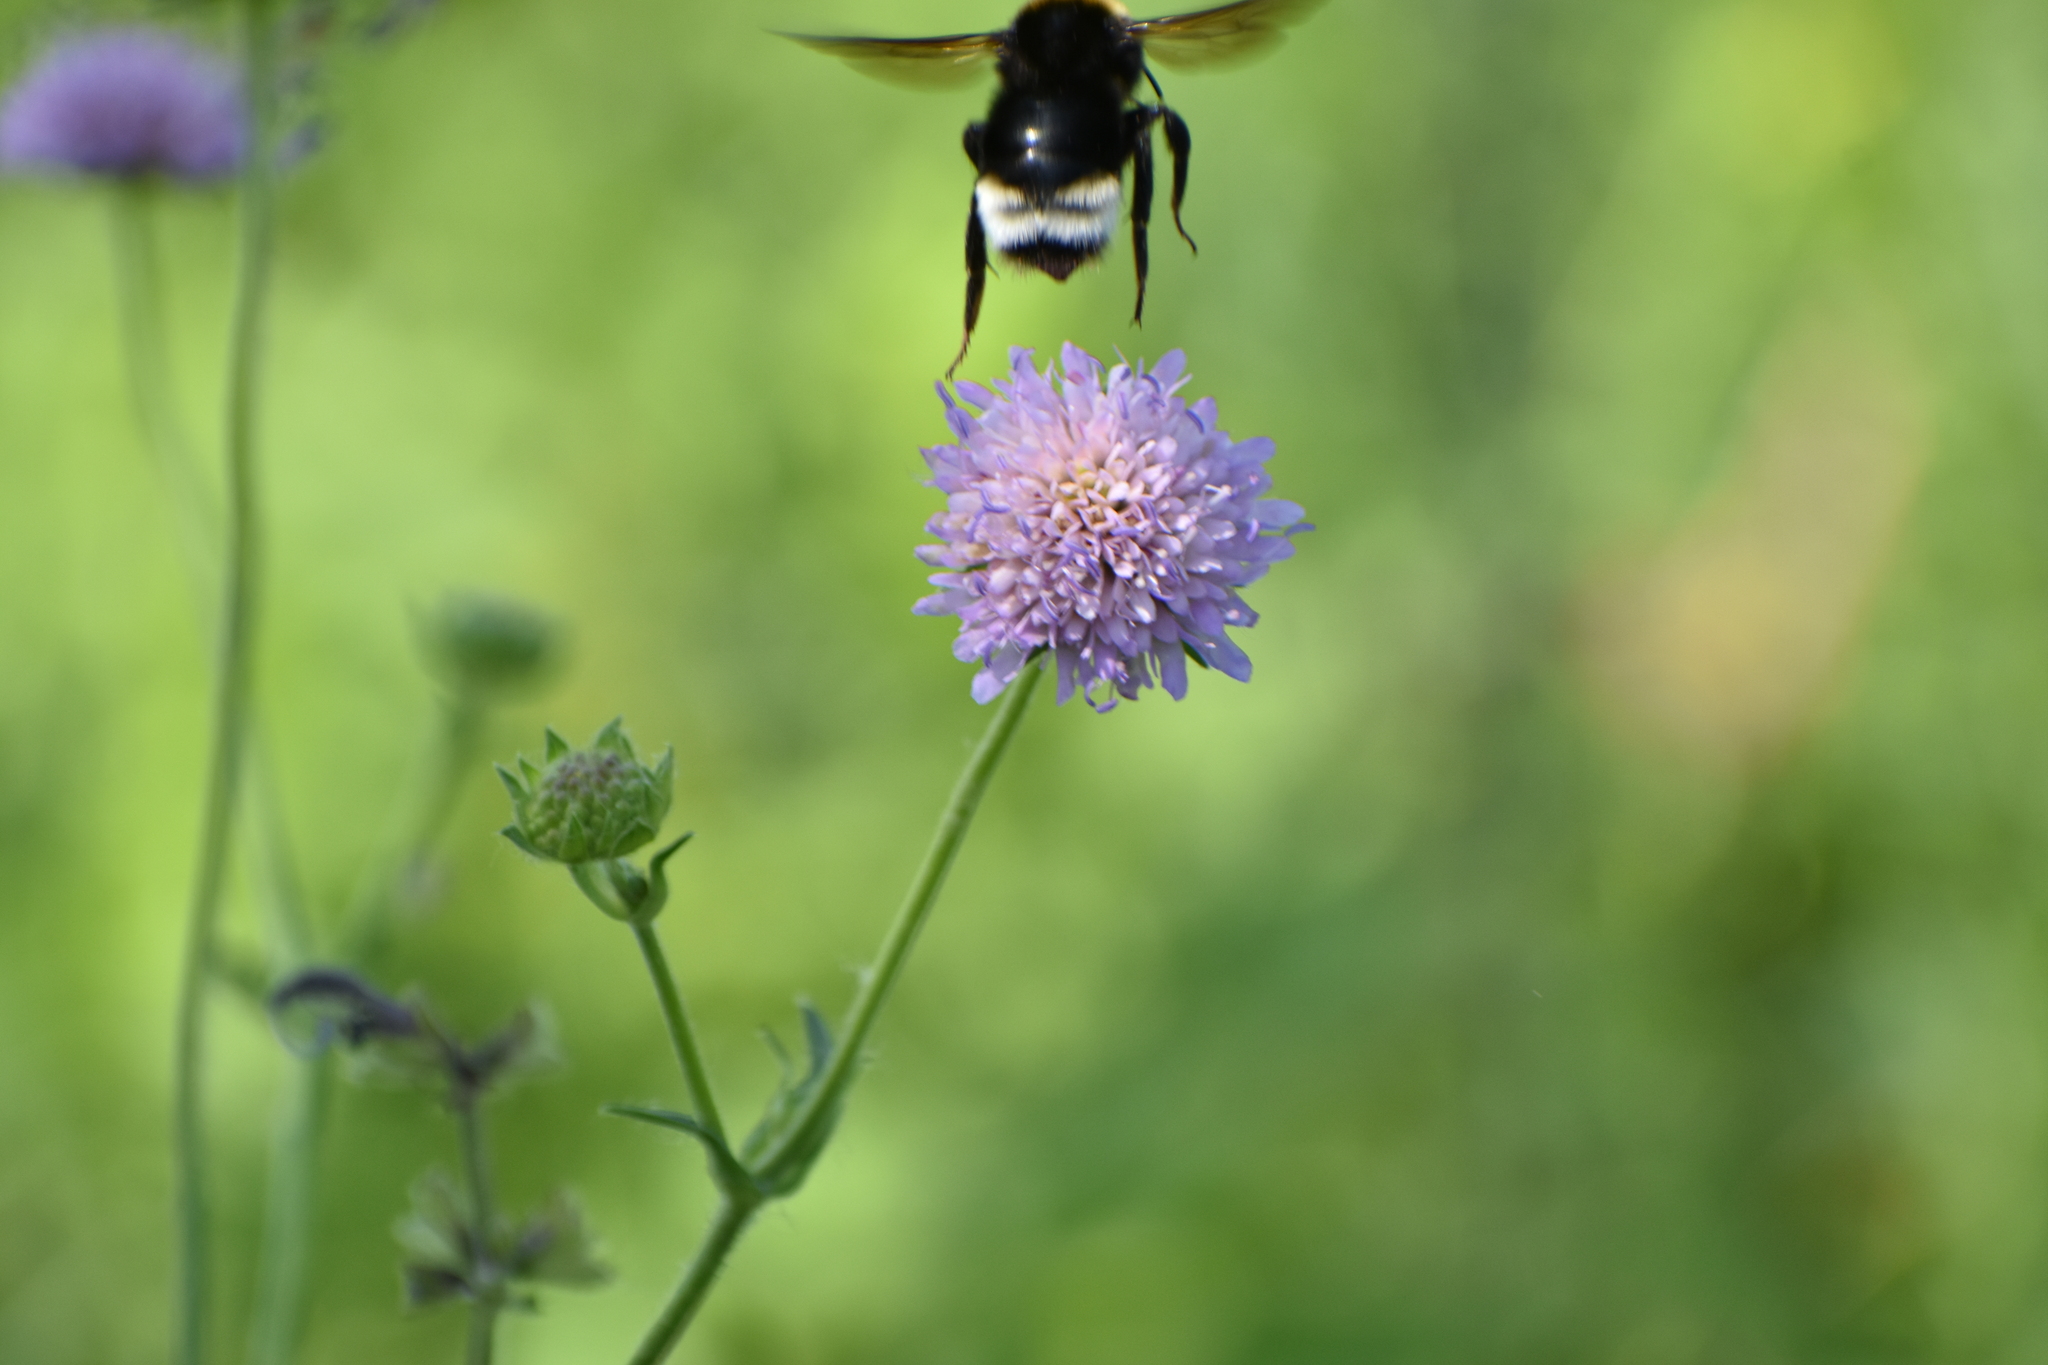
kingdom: Animalia
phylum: Arthropoda
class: Insecta
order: Hymenoptera
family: Apidae
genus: Bombus
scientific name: Bombus sylvestris
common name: Forest cuckoo bee
